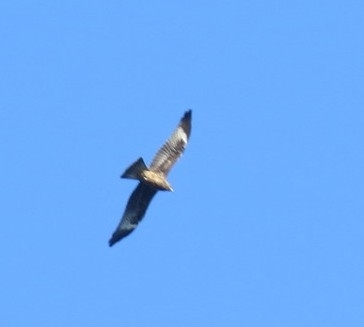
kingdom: Animalia
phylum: Chordata
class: Aves
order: Accipitriformes
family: Accipitridae
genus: Milvus
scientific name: Milvus migrans
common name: Black kite
